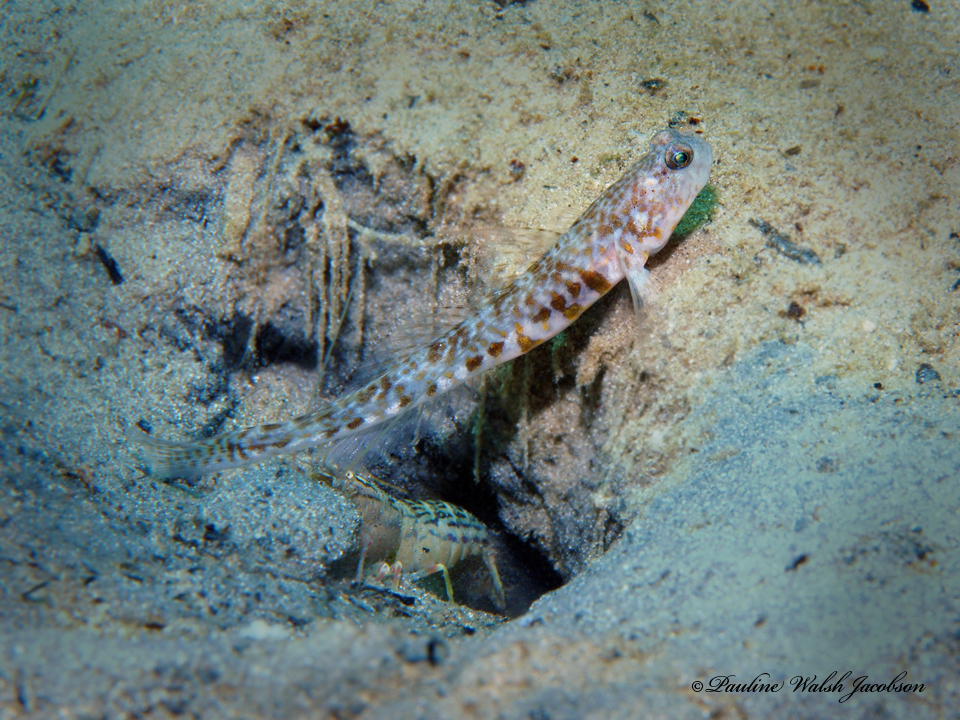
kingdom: Animalia
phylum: Arthropoda
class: Malacostraca
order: Decapoda
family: Alpheidae
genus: Alpheus
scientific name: Alpheus floridanus
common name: Sand snapping shrimp
